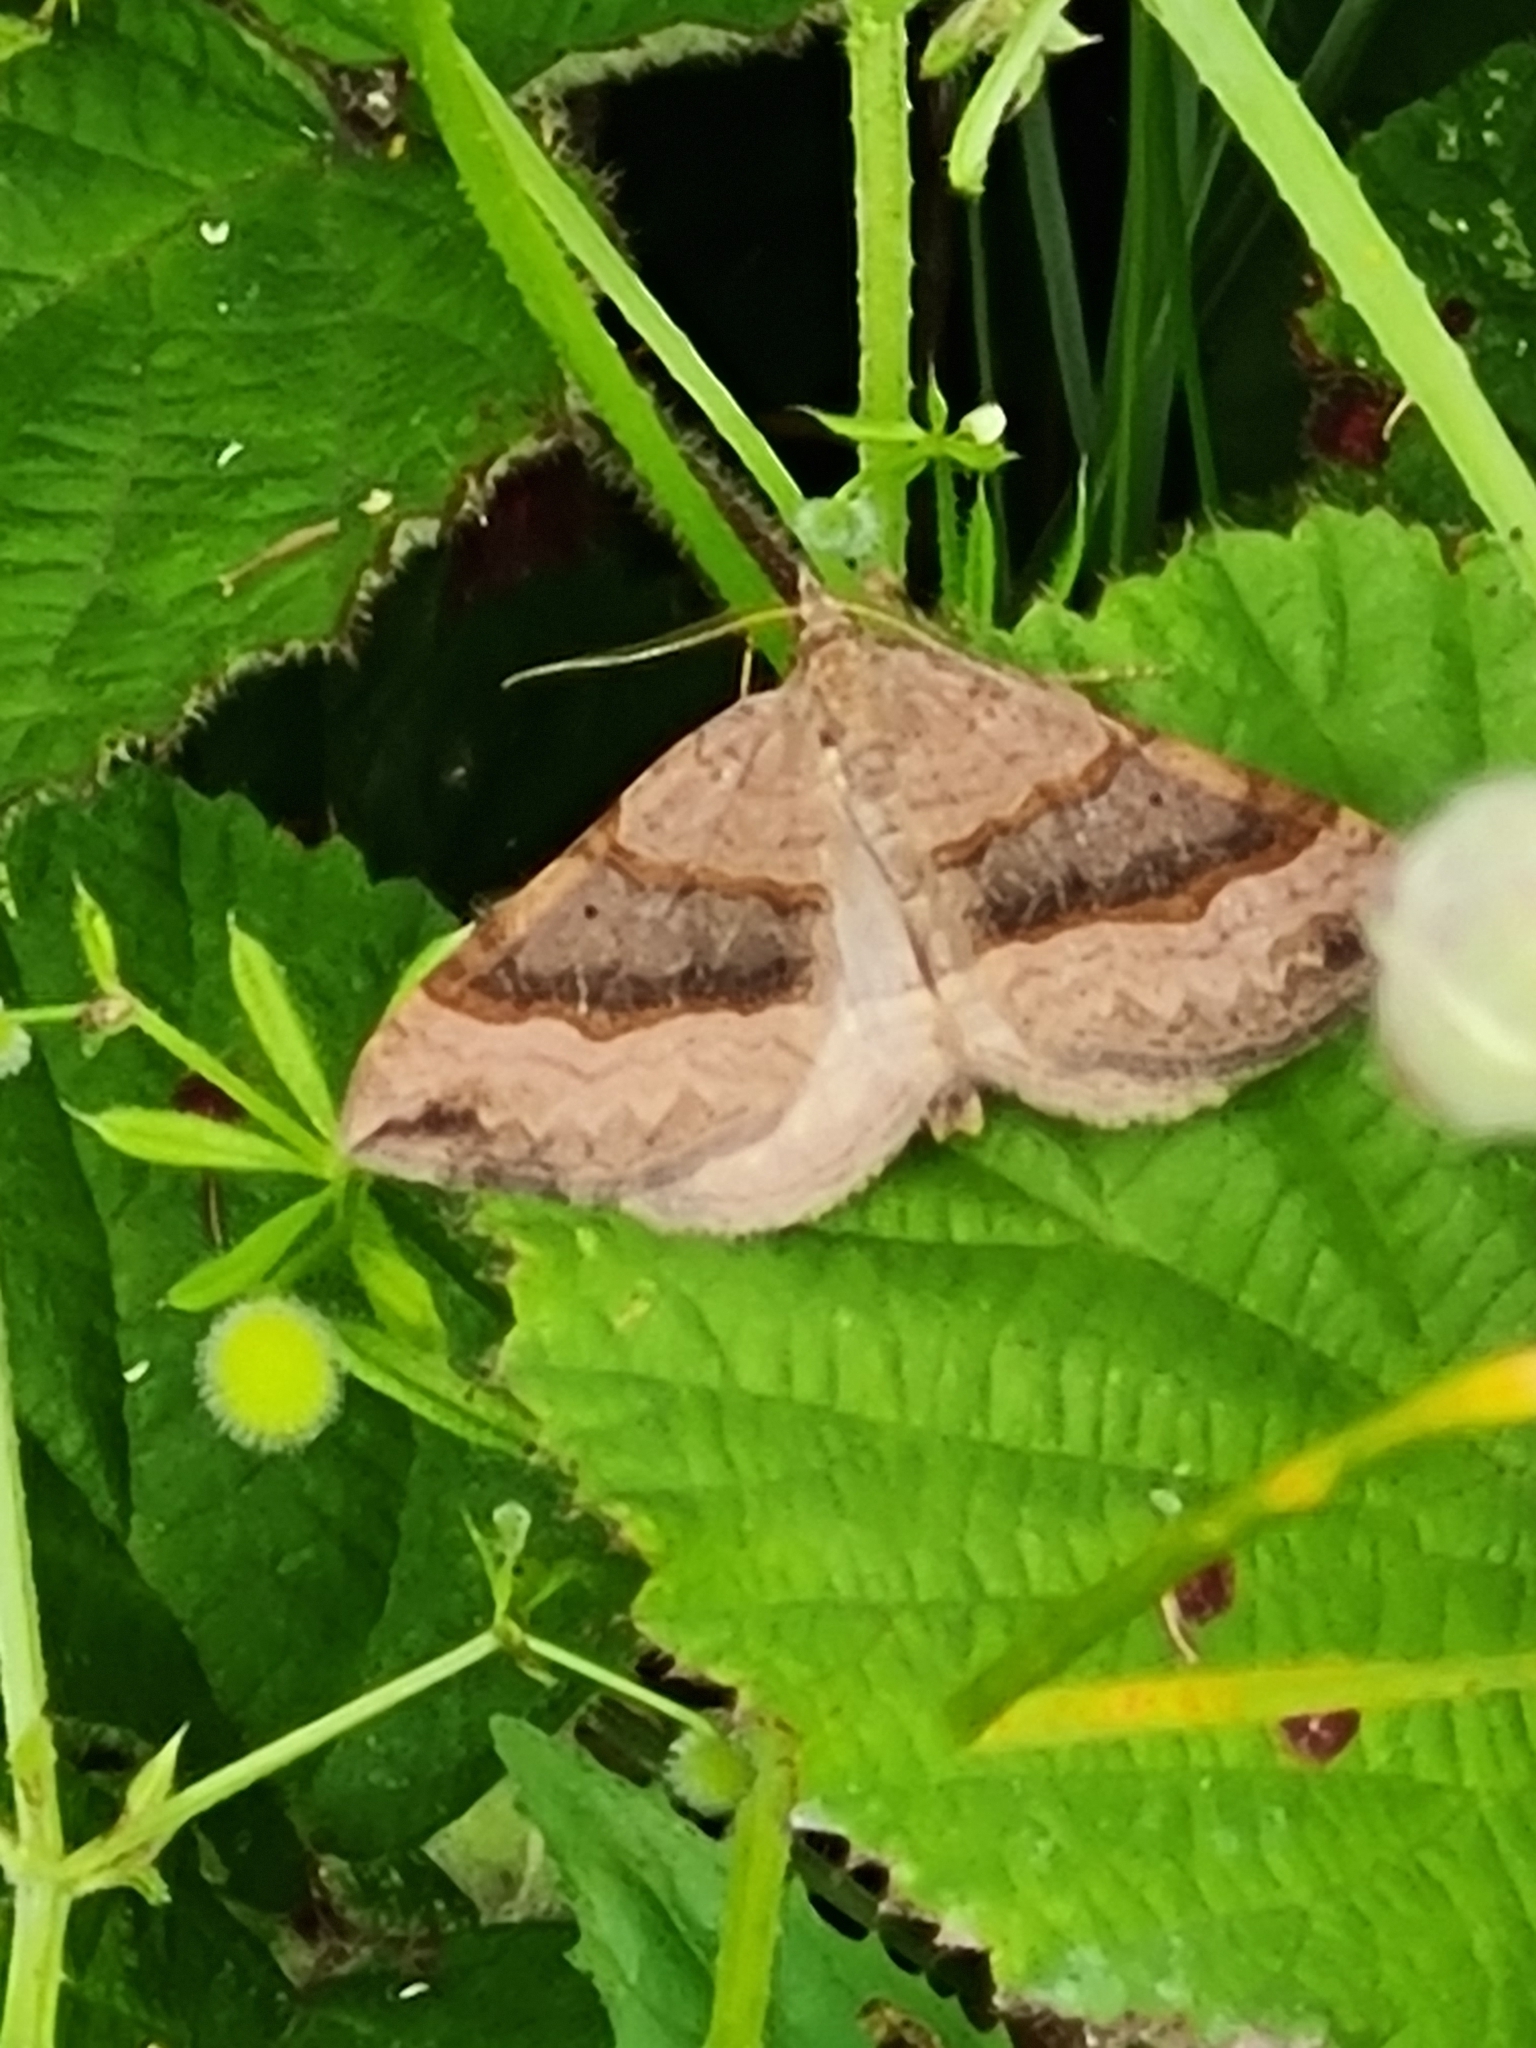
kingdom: Animalia
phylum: Arthropoda
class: Insecta
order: Lepidoptera
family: Geometridae
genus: Scotopteryx
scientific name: Scotopteryx chenopodiata
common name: Shaded broad-bar
